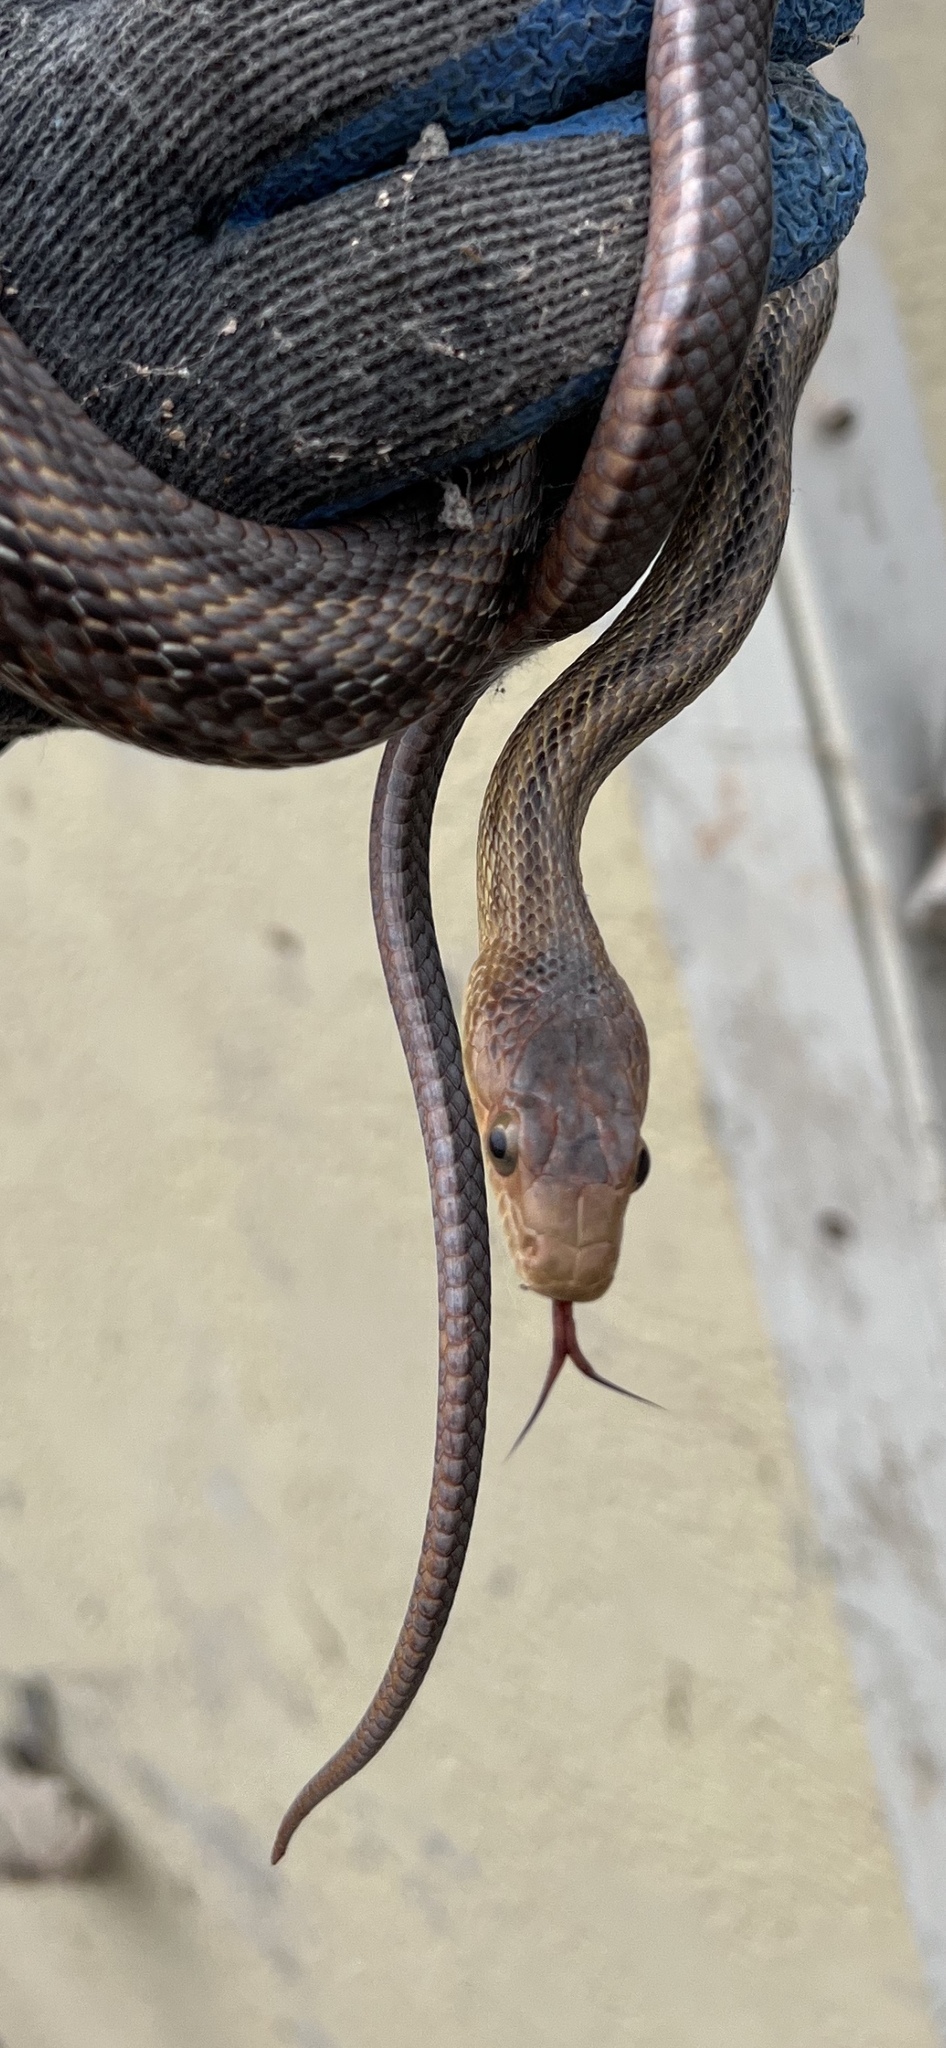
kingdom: Animalia
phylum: Chordata
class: Squamata
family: Colubridae
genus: Pantherophis
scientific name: Pantherophis bairdi
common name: Baird's rat snake
